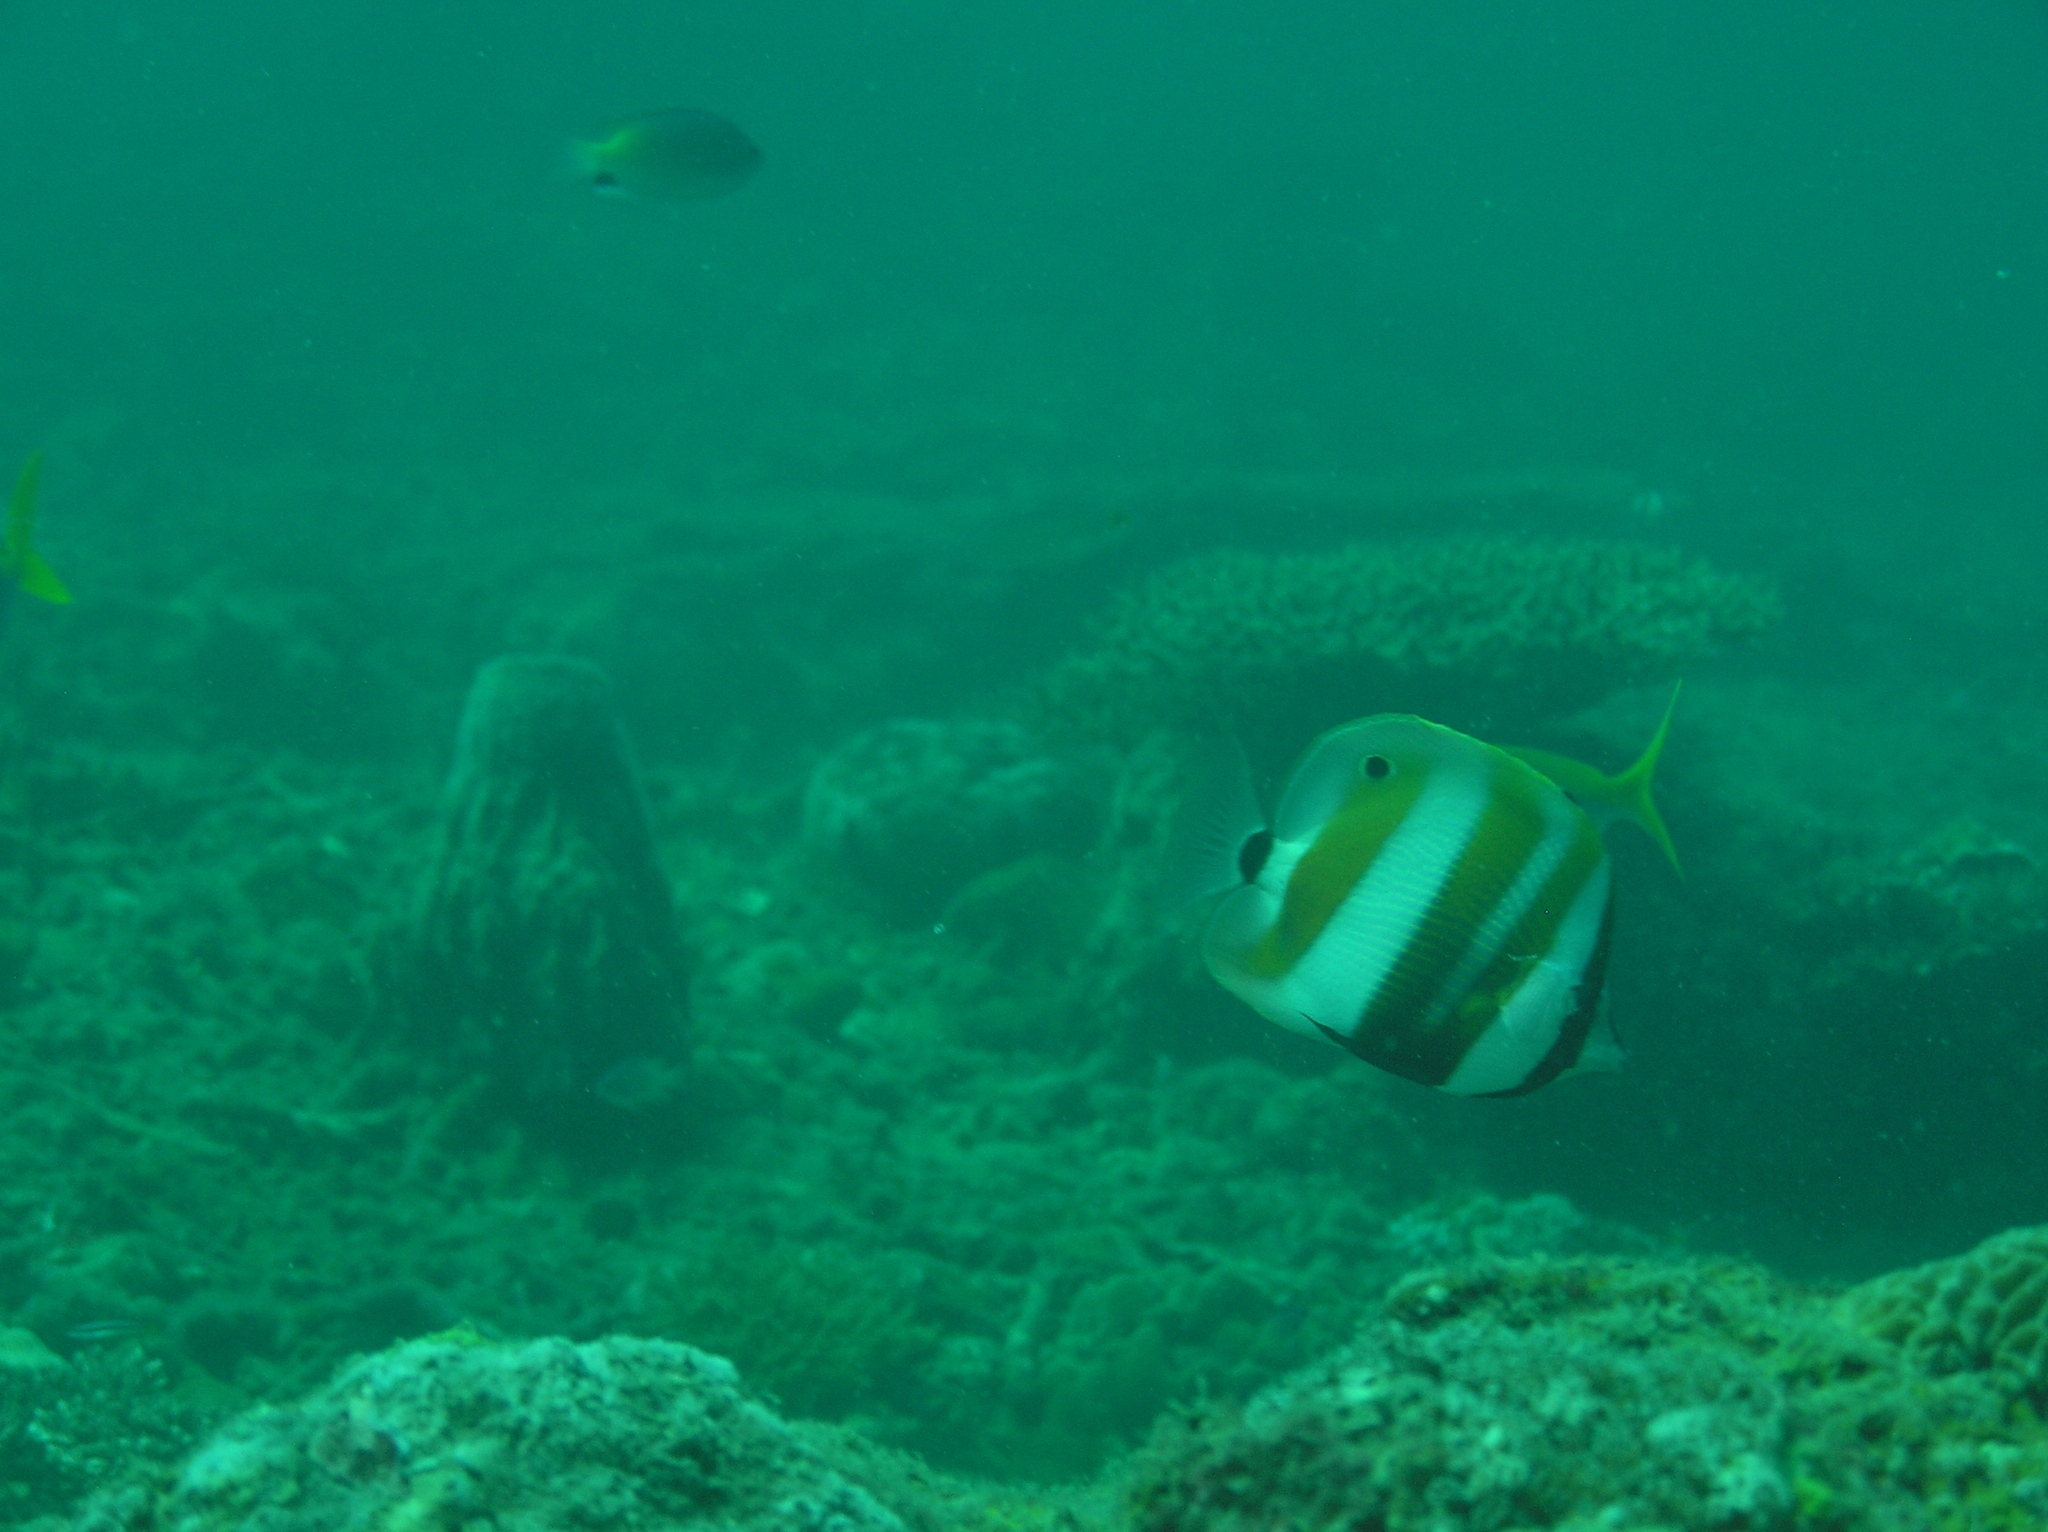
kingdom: Animalia
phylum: Chordata
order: Perciformes
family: Chaetodontidae
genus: Coradion
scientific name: Coradion chrysozonus
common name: Orange-banded coralfish
